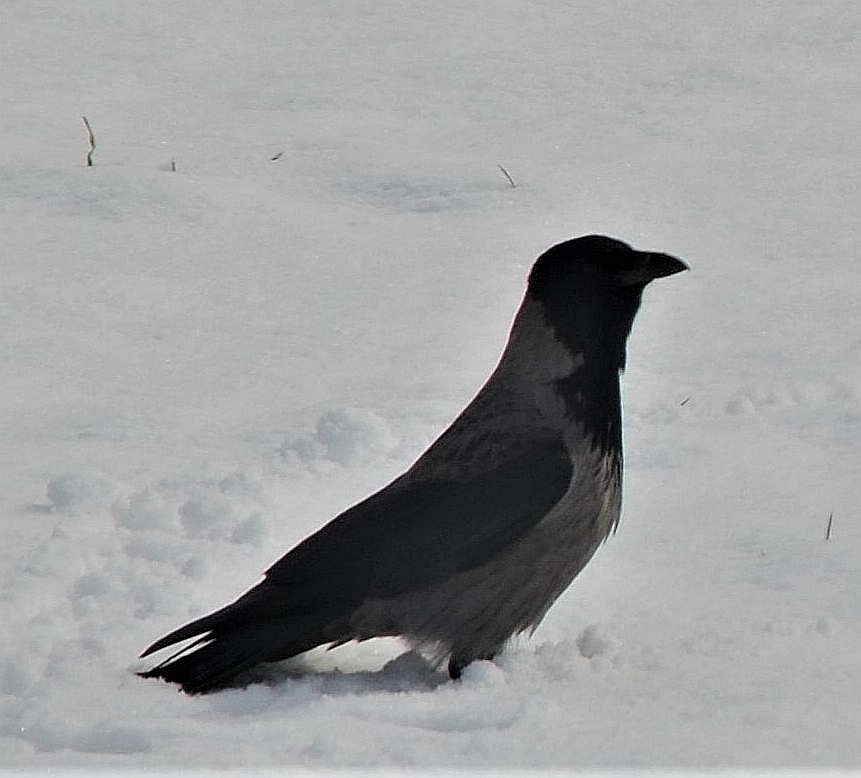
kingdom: Animalia
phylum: Chordata
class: Aves
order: Passeriformes
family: Corvidae
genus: Corvus
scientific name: Corvus cornix
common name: Hooded crow
